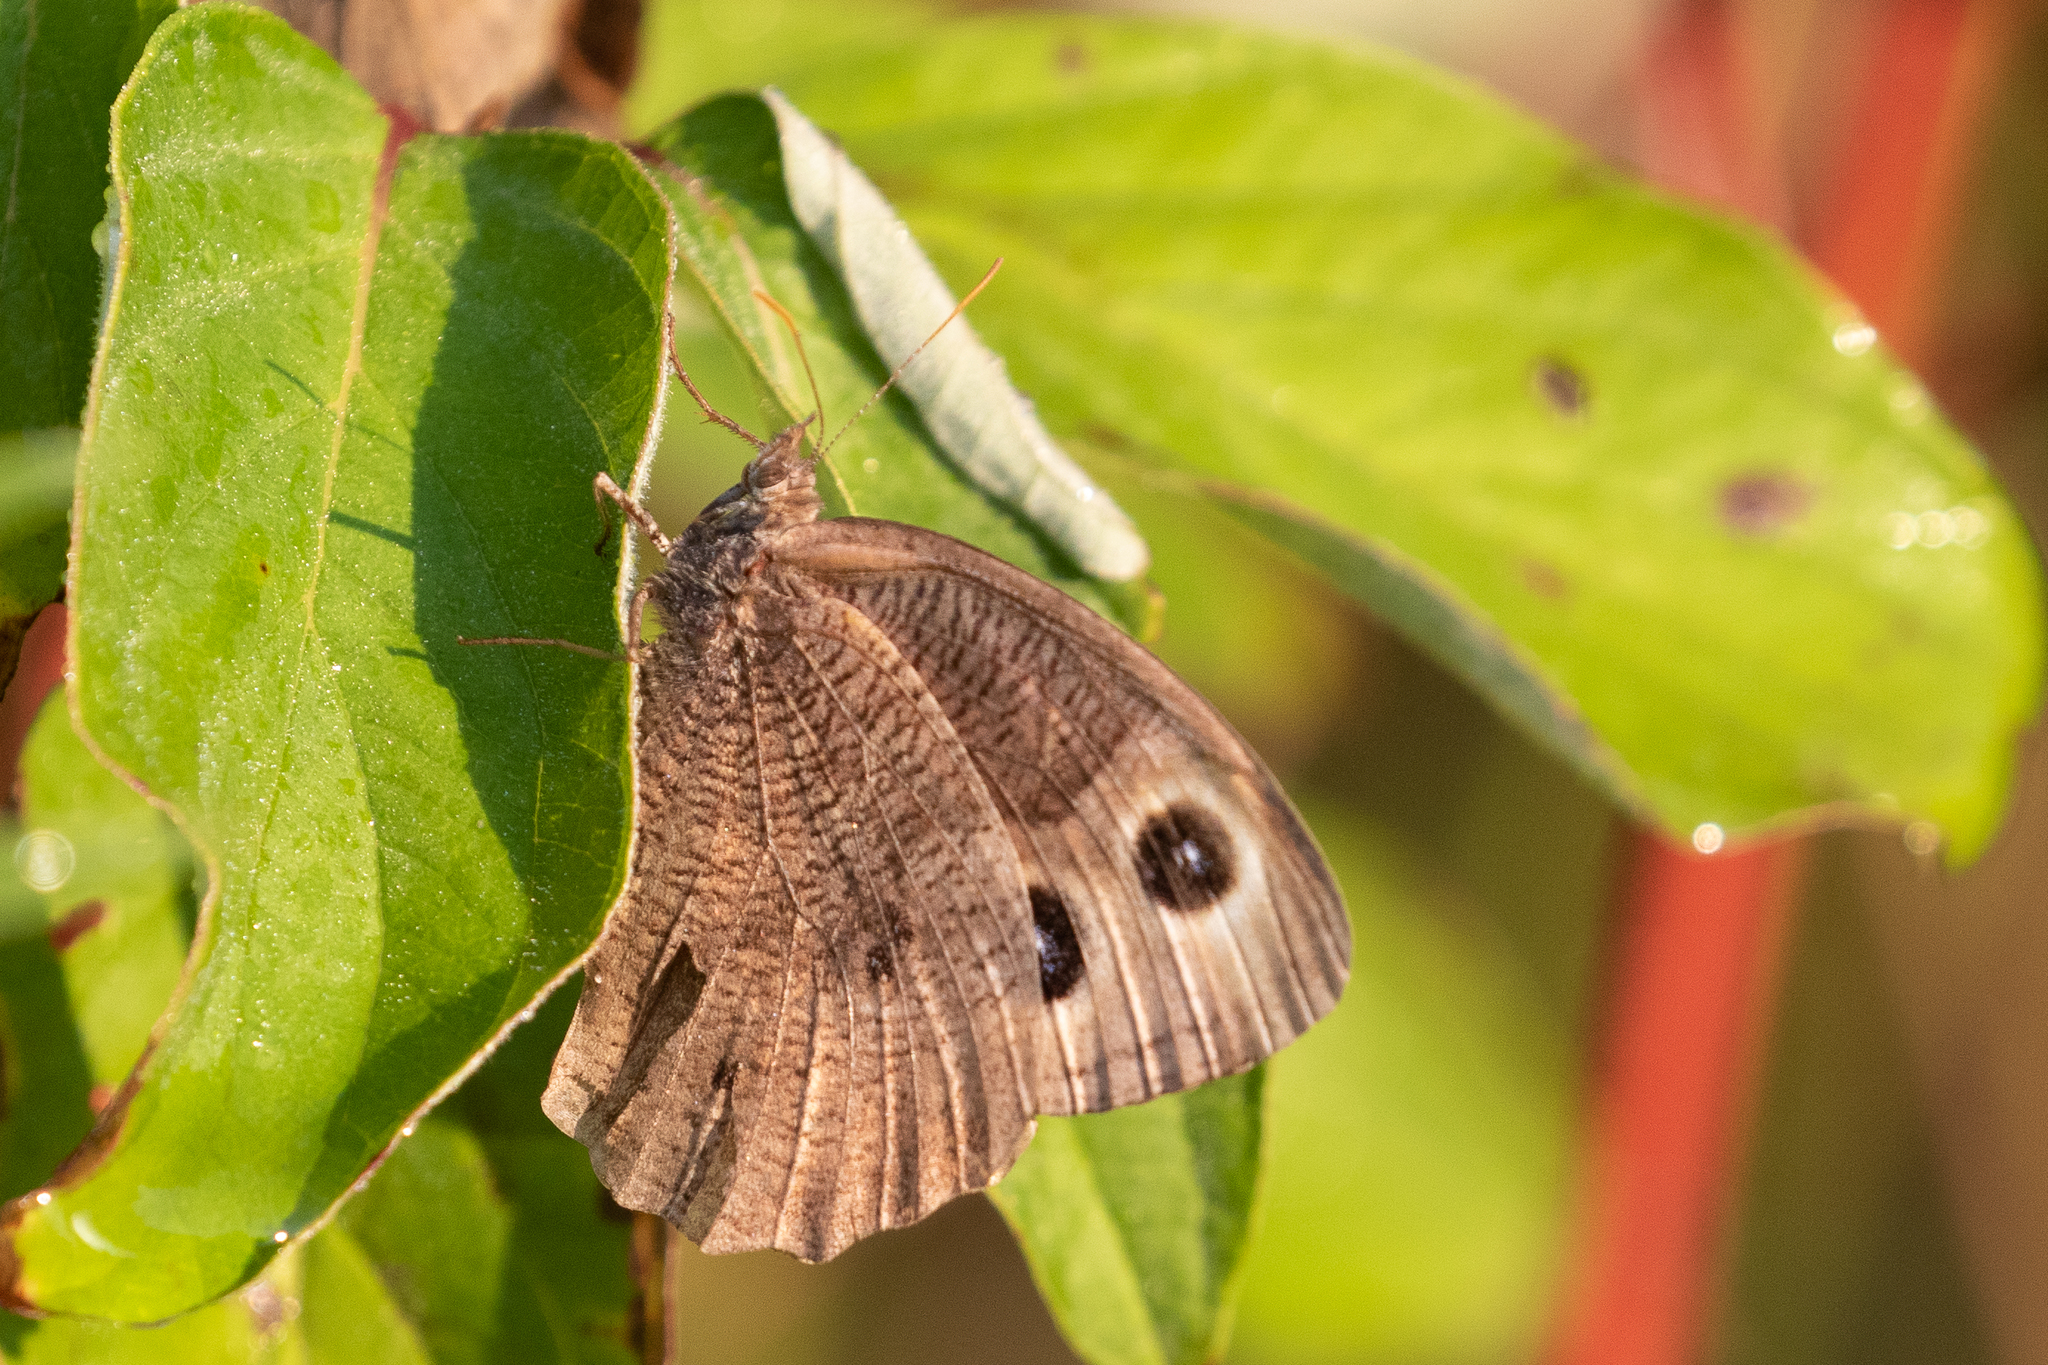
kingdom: Animalia
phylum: Arthropoda
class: Insecta
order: Lepidoptera
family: Nymphalidae
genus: Cercyonis
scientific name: Cercyonis pegala
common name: Common wood-nymph
